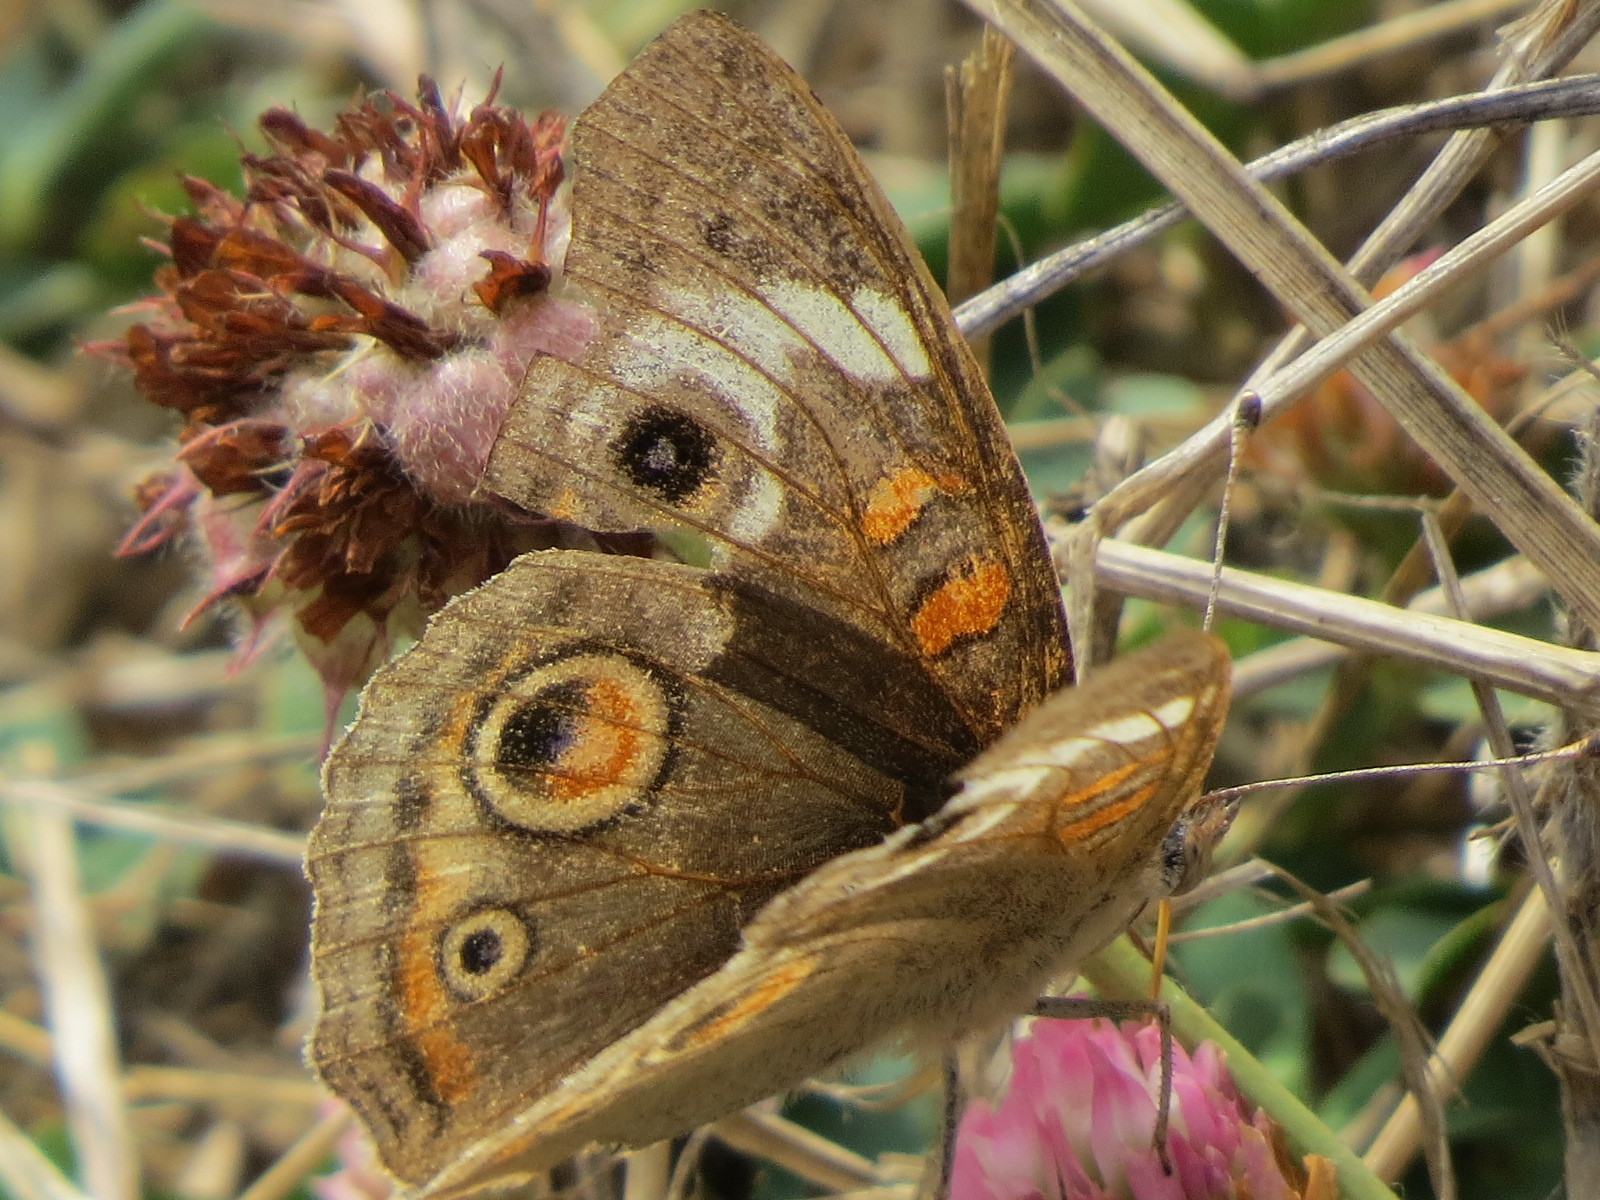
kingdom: Animalia
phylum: Arthropoda
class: Insecta
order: Lepidoptera
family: Nymphalidae
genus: Junonia
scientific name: Junonia grisea
